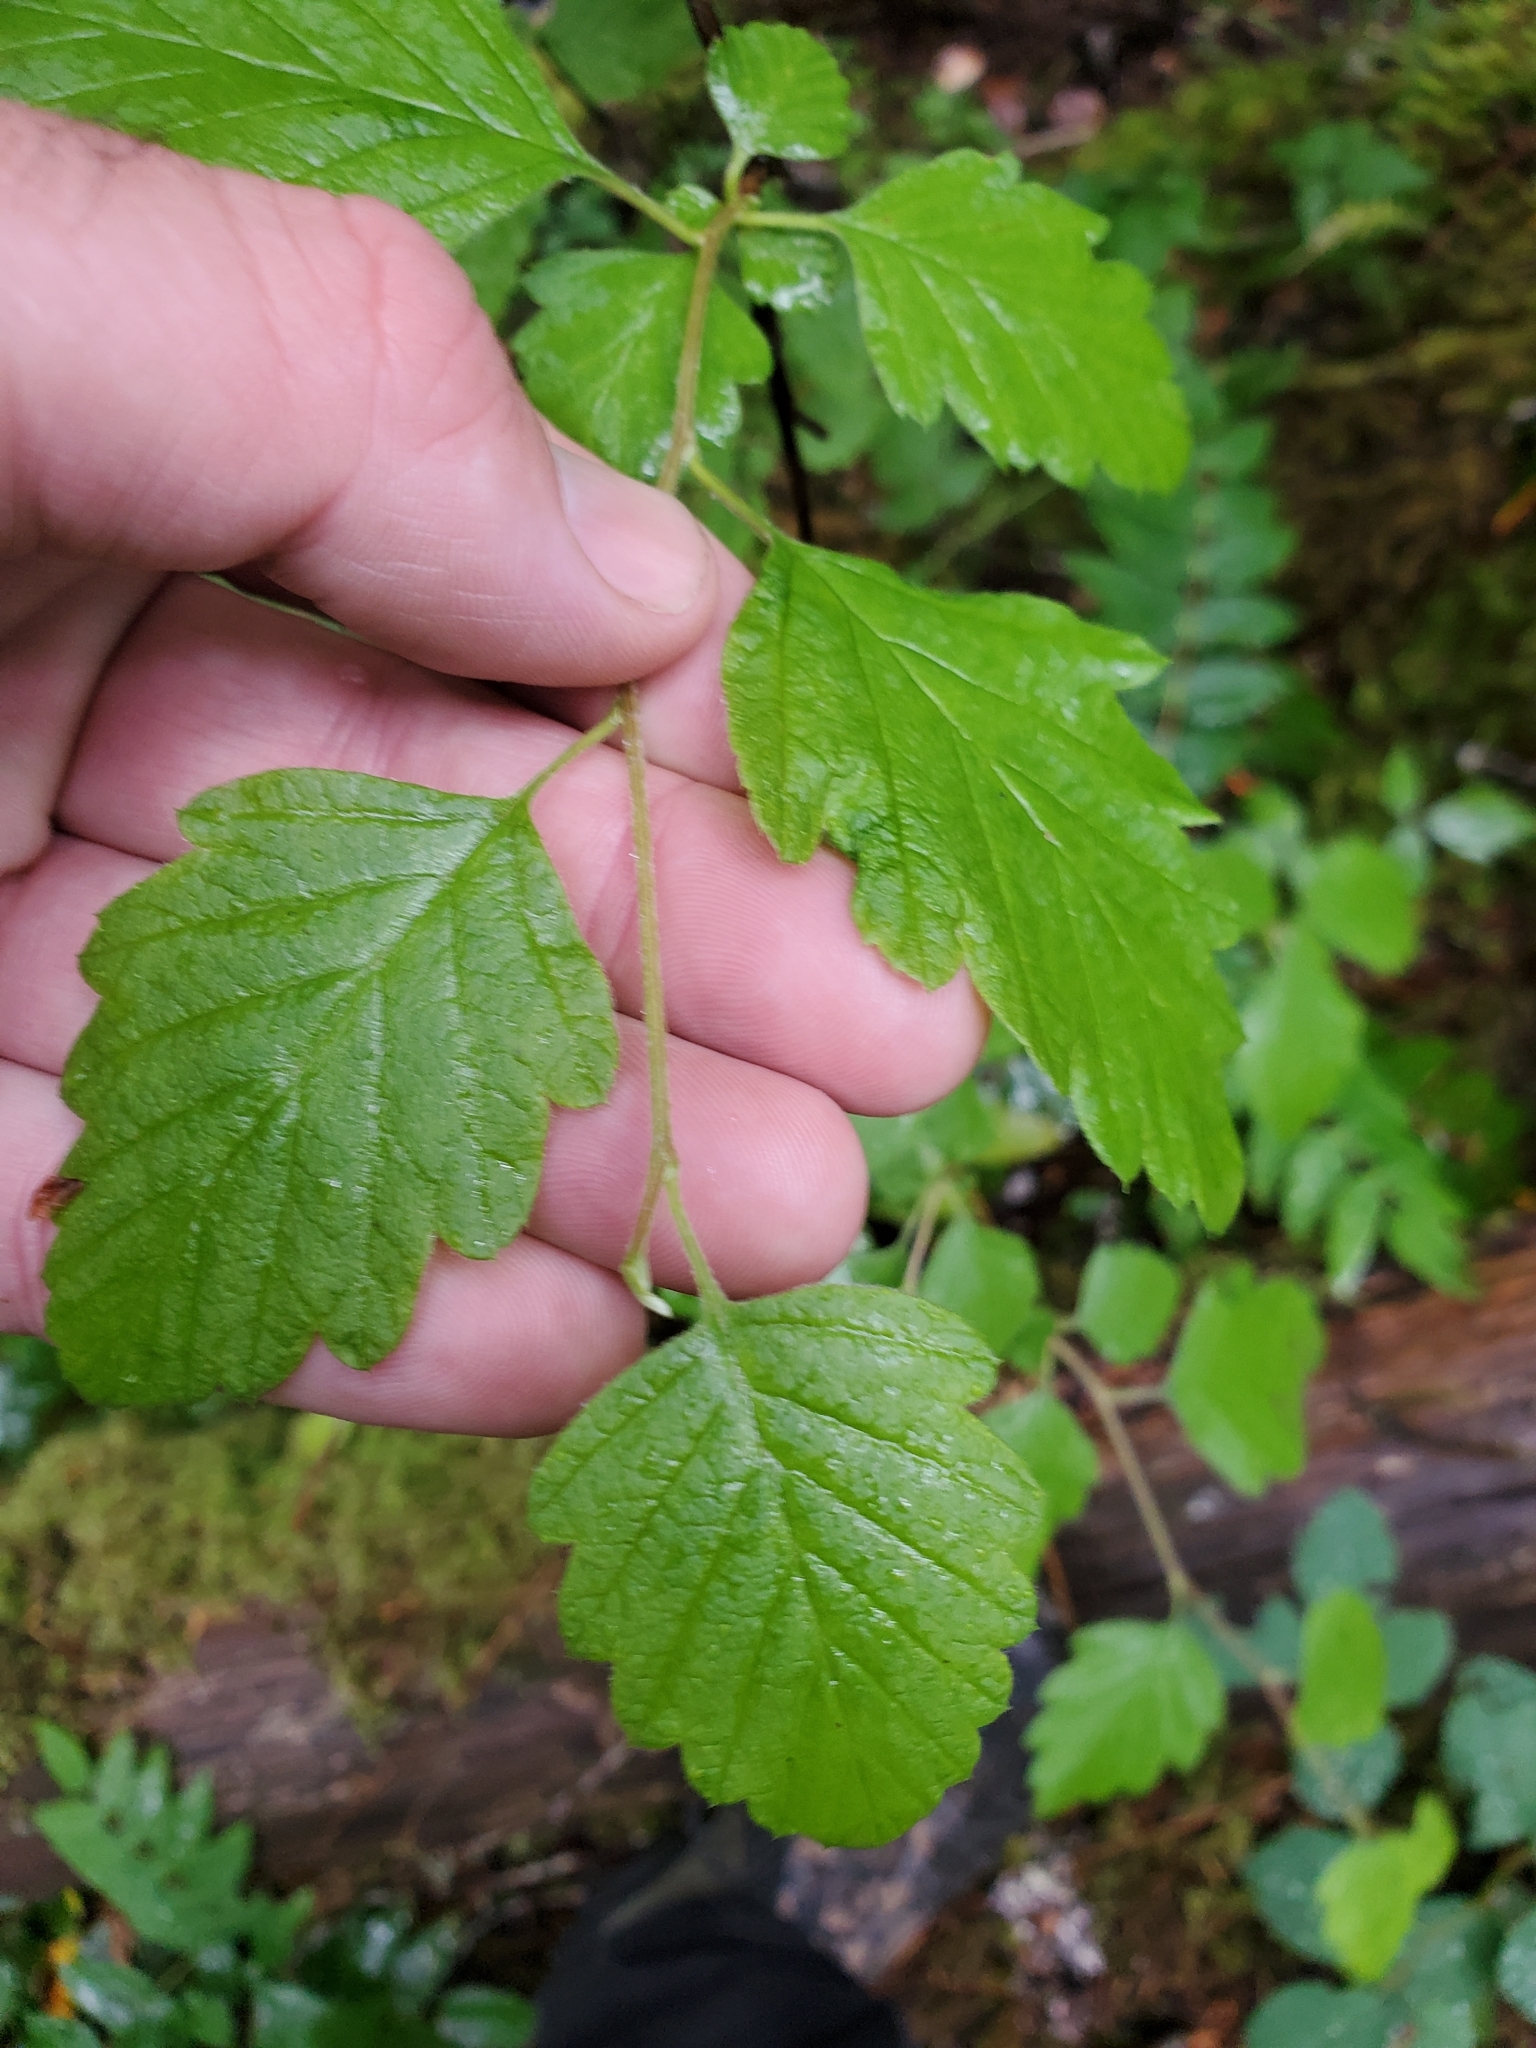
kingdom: Plantae
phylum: Tracheophyta
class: Magnoliopsida
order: Rosales
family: Rosaceae
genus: Holodiscus
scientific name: Holodiscus discolor
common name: Oceanspray
